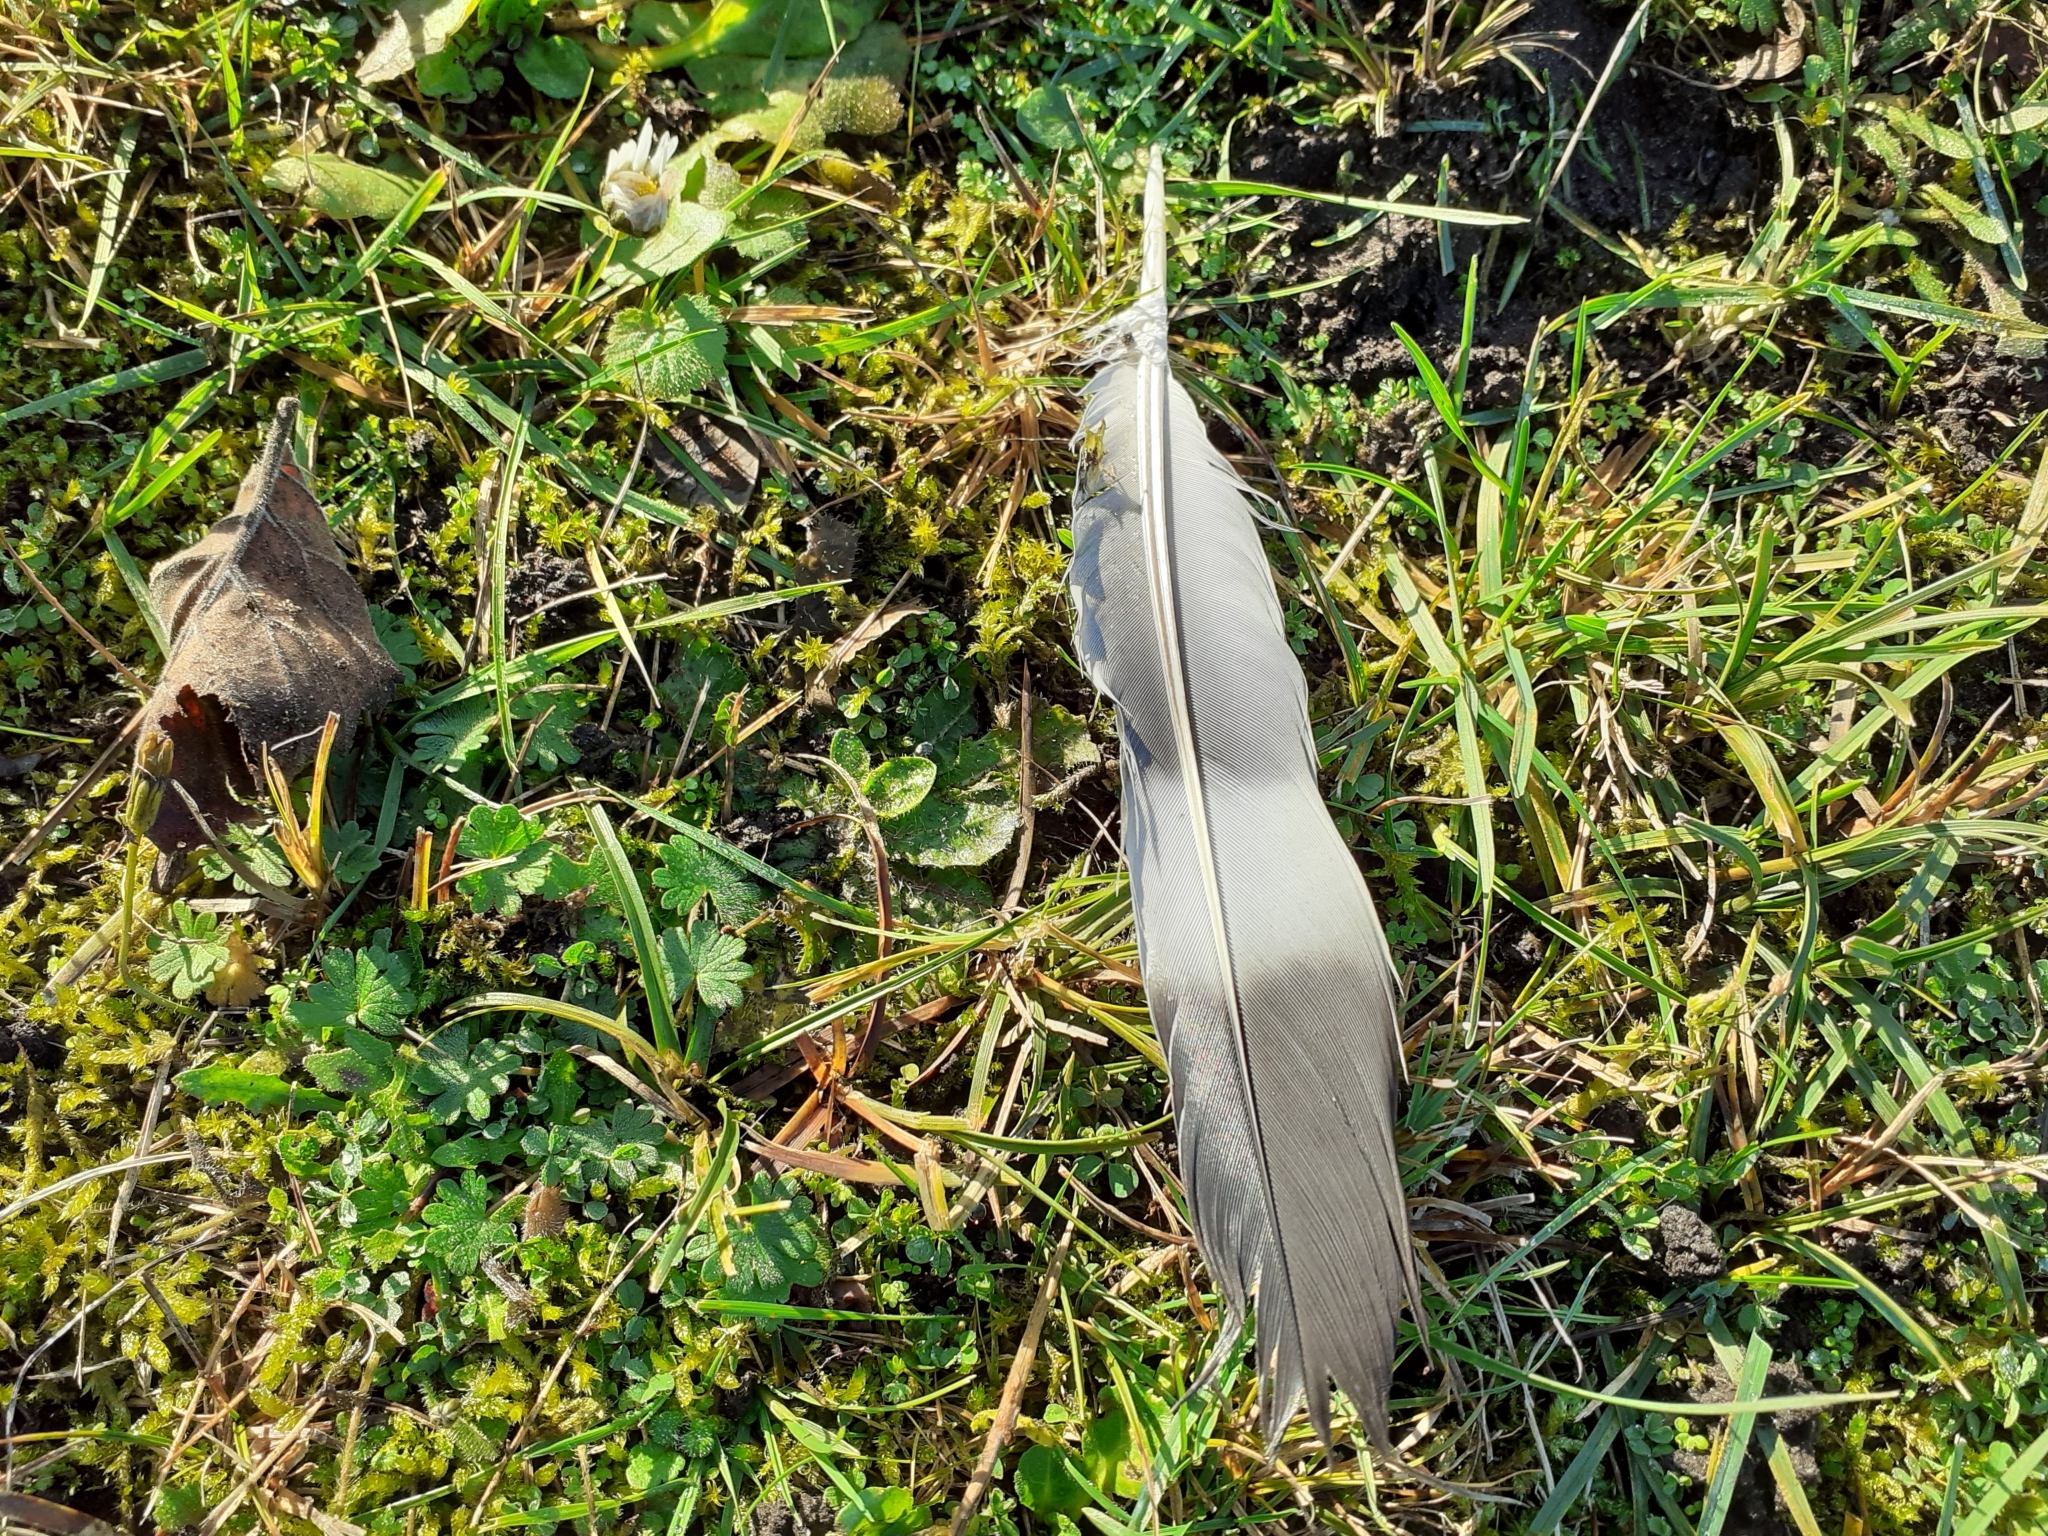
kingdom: Animalia
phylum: Chordata
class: Aves
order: Columbiformes
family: Columbidae
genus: Columba
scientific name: Columba palumbus
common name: Common wood pigeon
